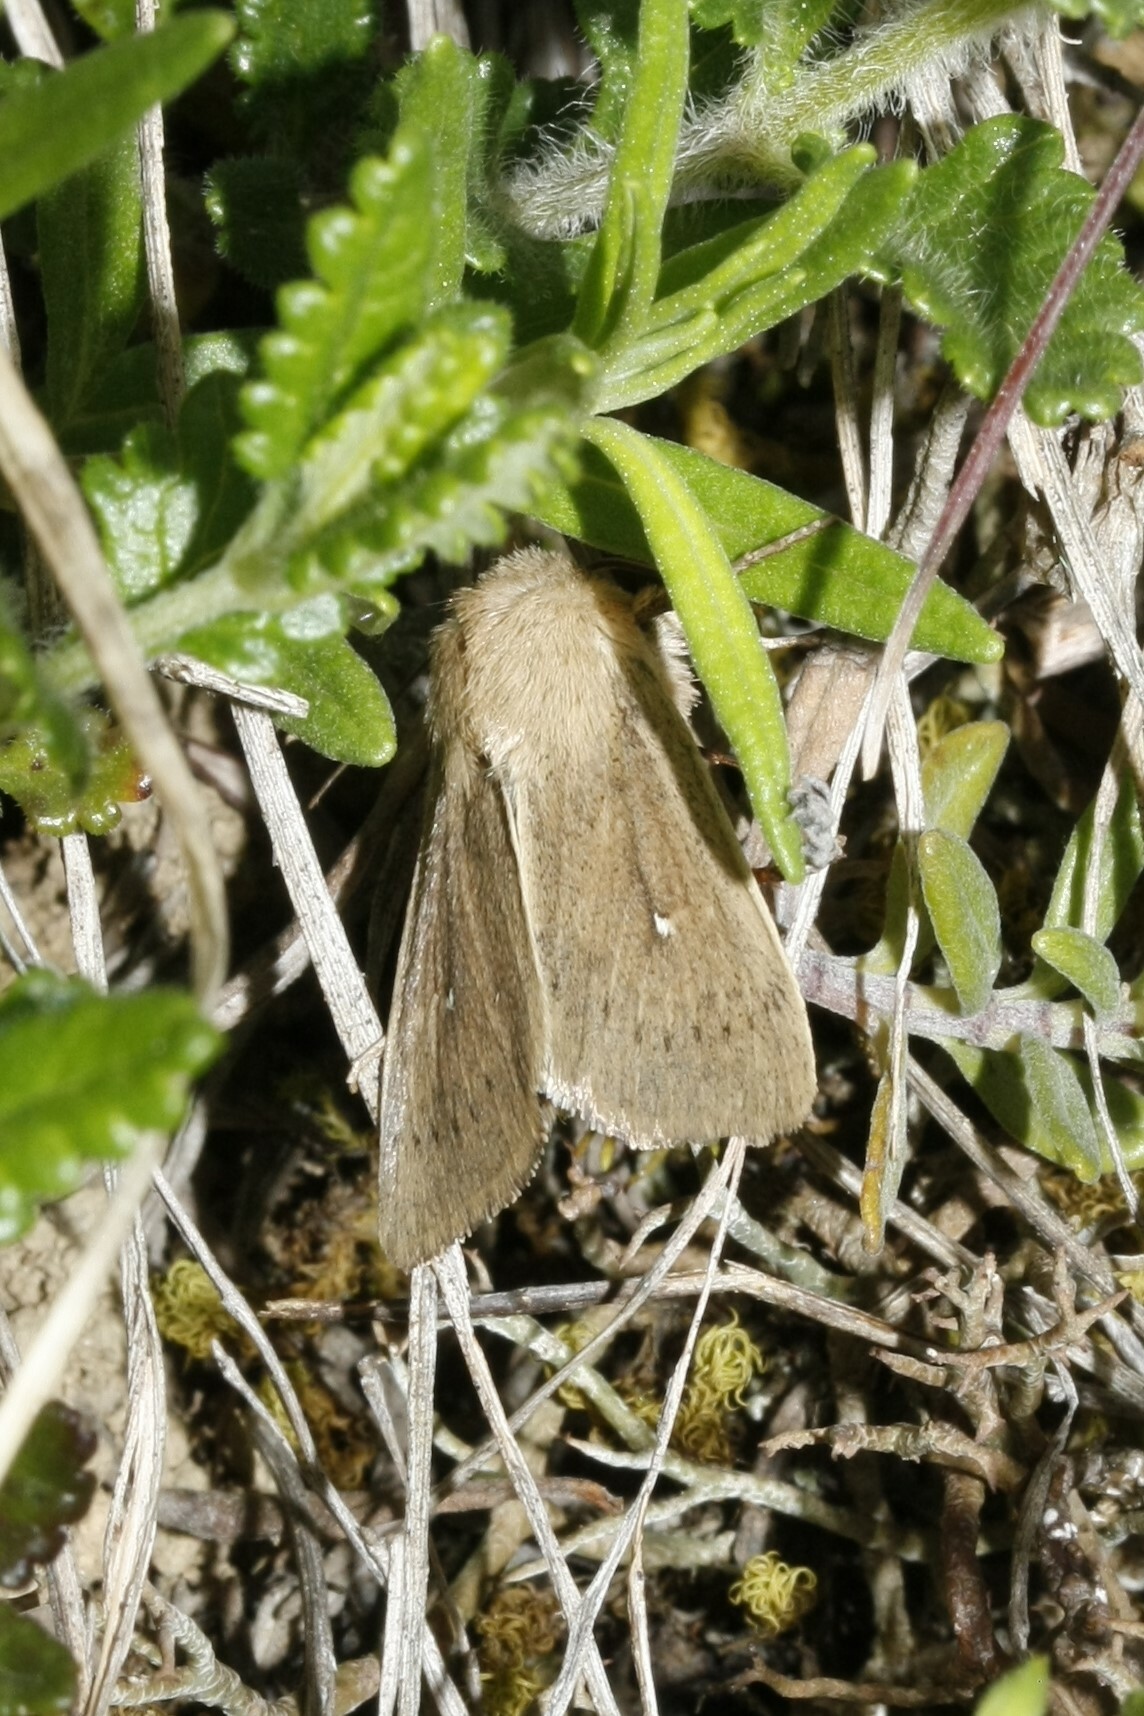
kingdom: Animalia
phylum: Arthropoda
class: Insecta
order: Lepidoptera
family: Noctuidae
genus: Mythimna
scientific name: Mythimna sicula
